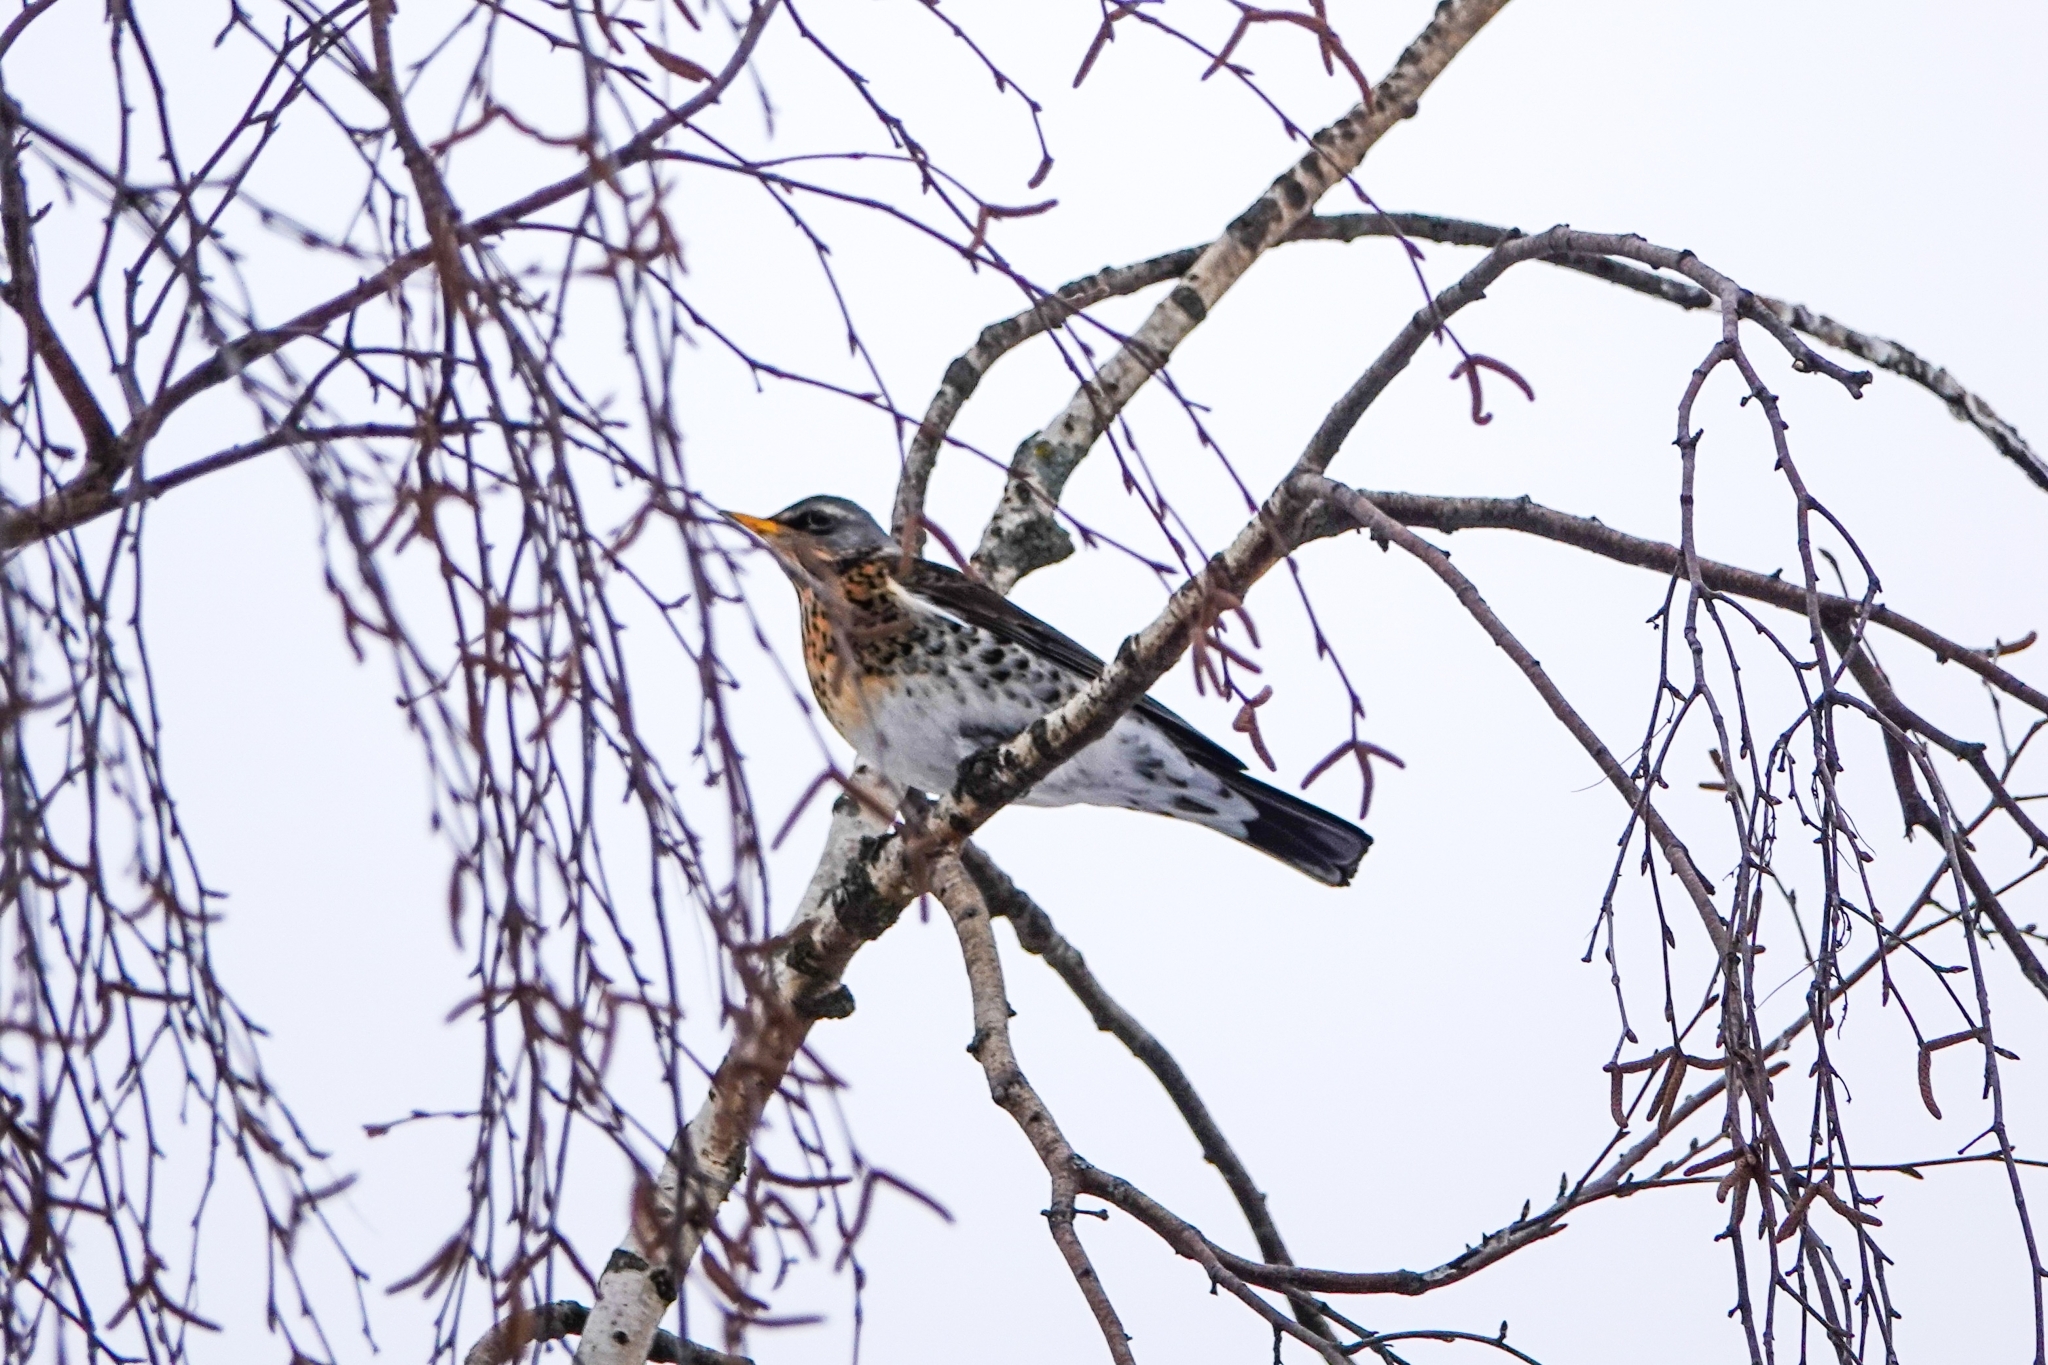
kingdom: Animalia
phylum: Chordata
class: Aves
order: Passeriformes
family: Turdidae
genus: Turdus
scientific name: Turdus pilaris
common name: Fieldfare
